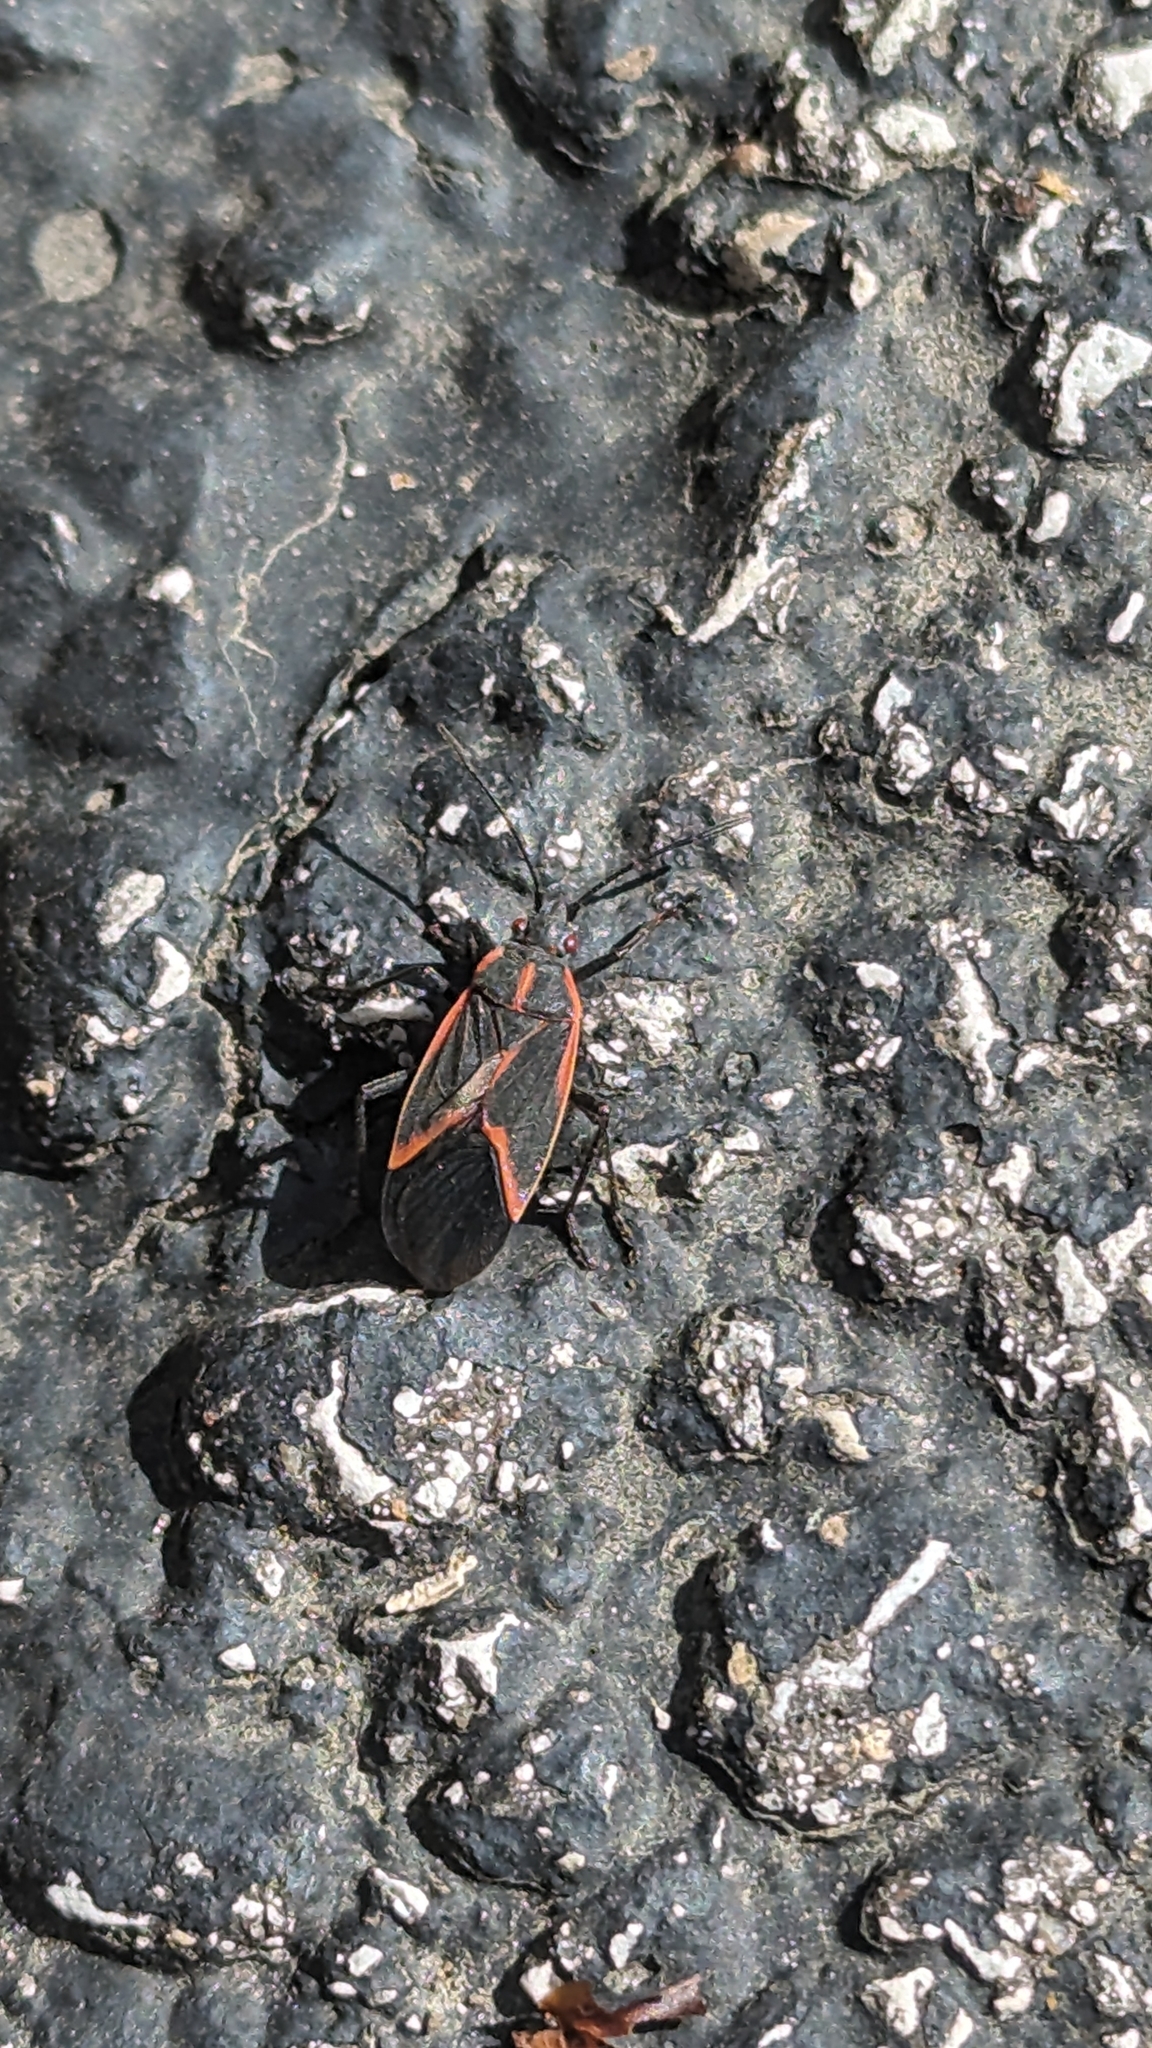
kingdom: Animalia
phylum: Arthropoda
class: Insecta
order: Hemiptera
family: Rhopalidae
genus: Boisea
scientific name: Boisea trivittata
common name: Boxelder bug
